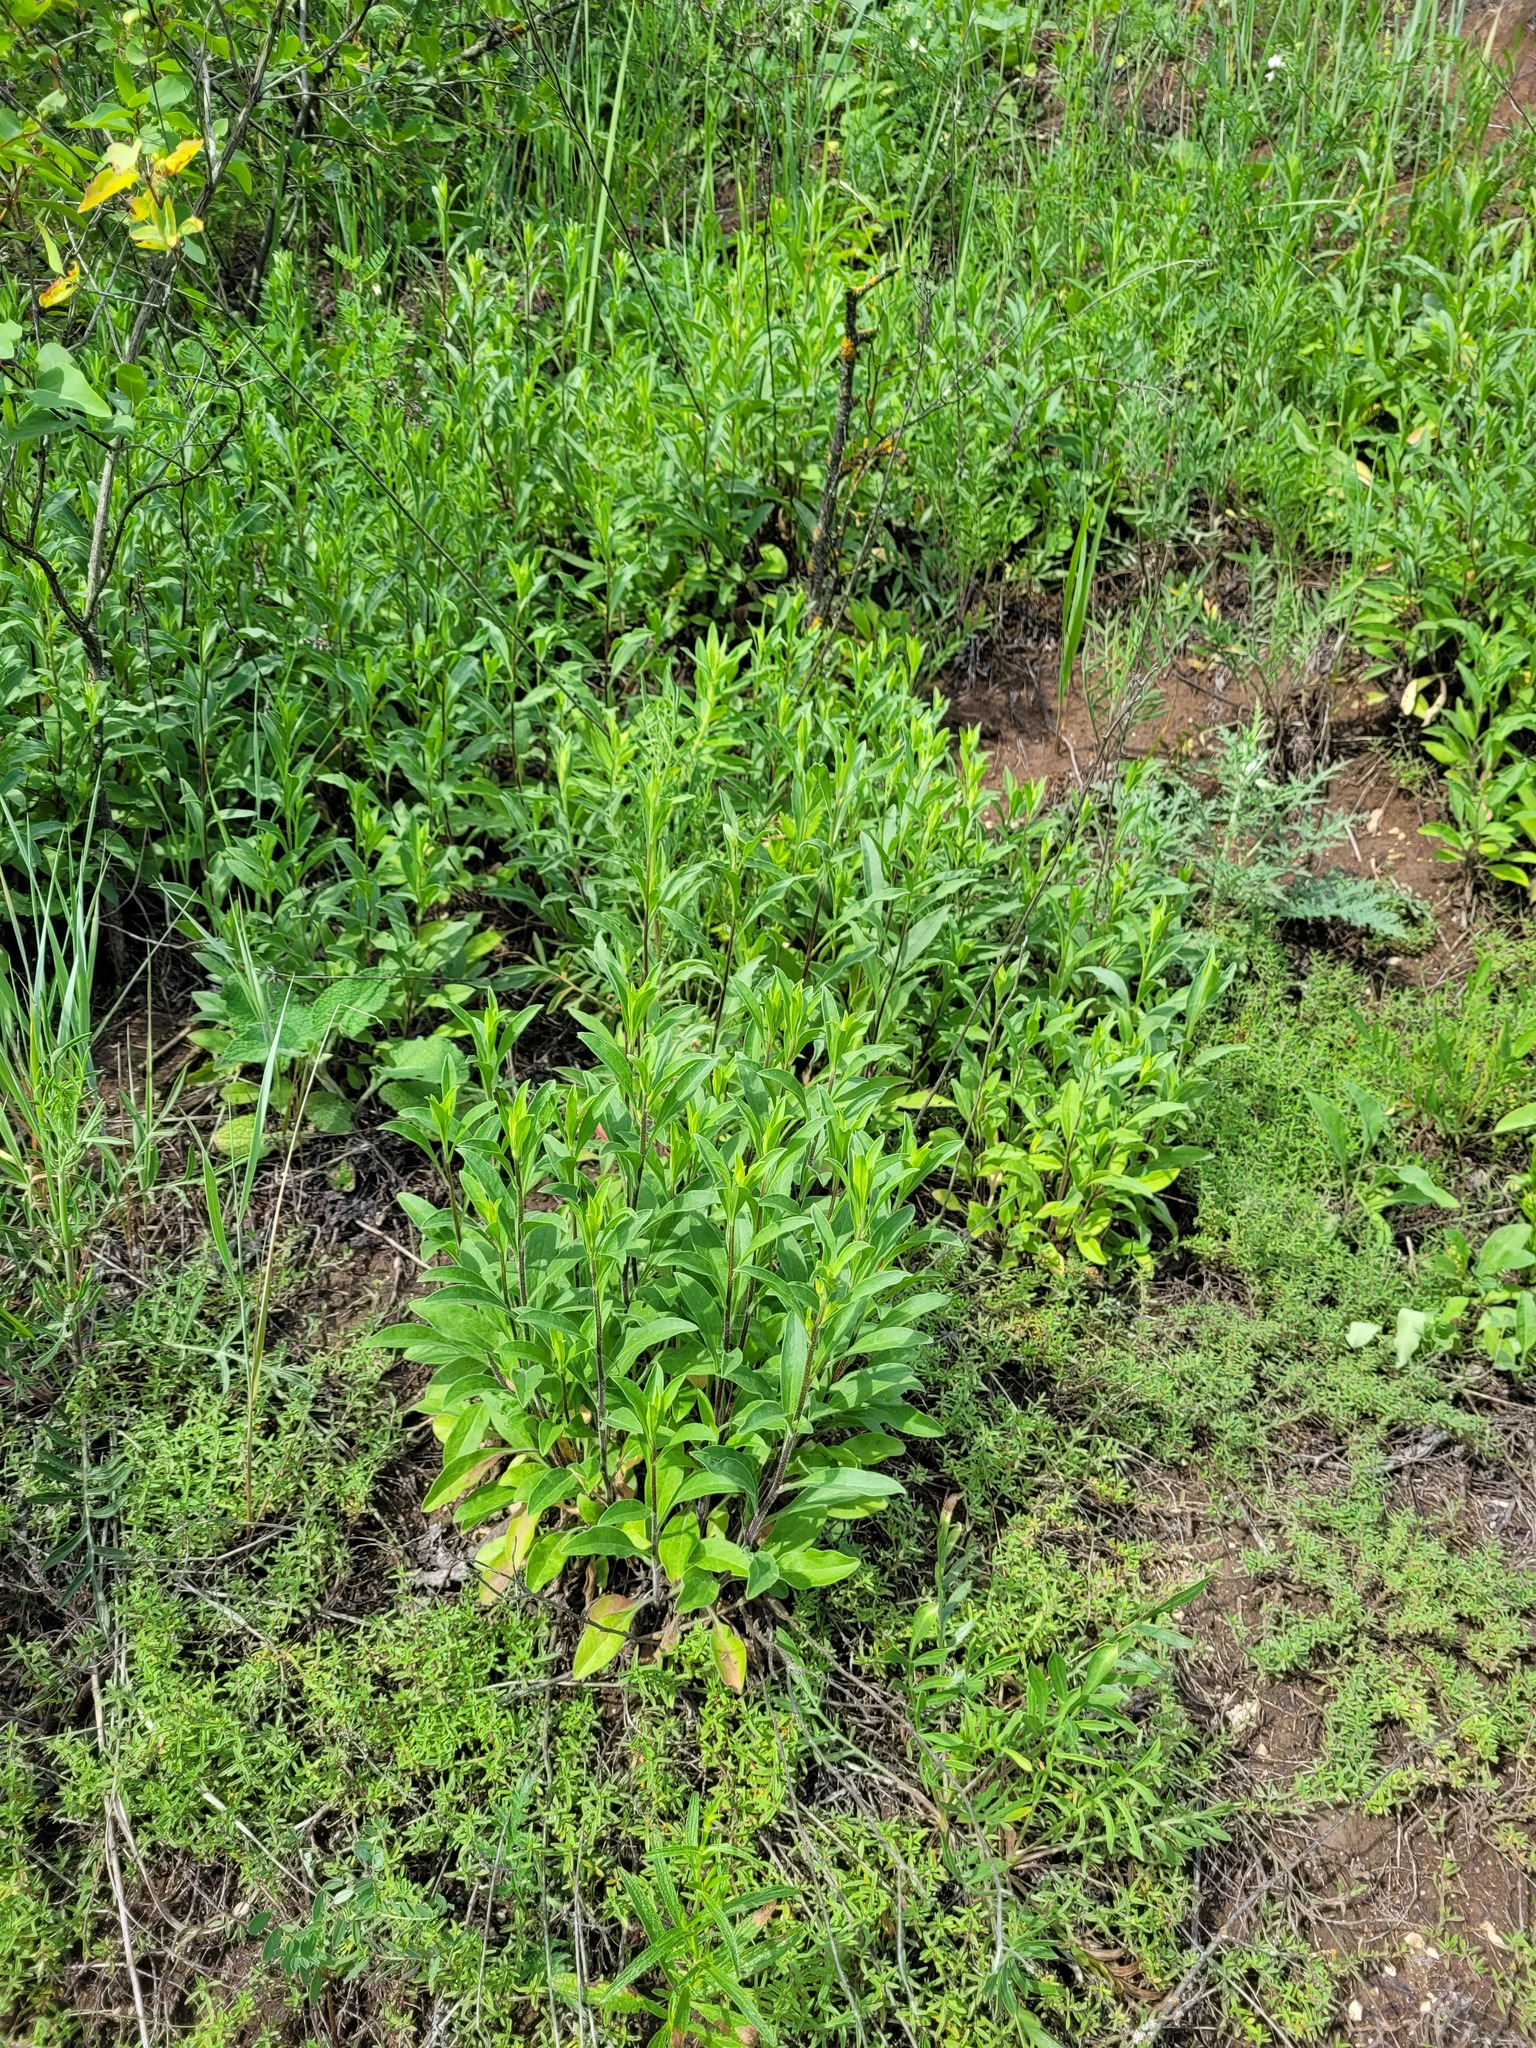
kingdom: Plantae
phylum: Tracheophyta
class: Magnoliopsida
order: Asterales
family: Asteraceae
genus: Aster
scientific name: Aster amellus
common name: European michaelmas daisy
